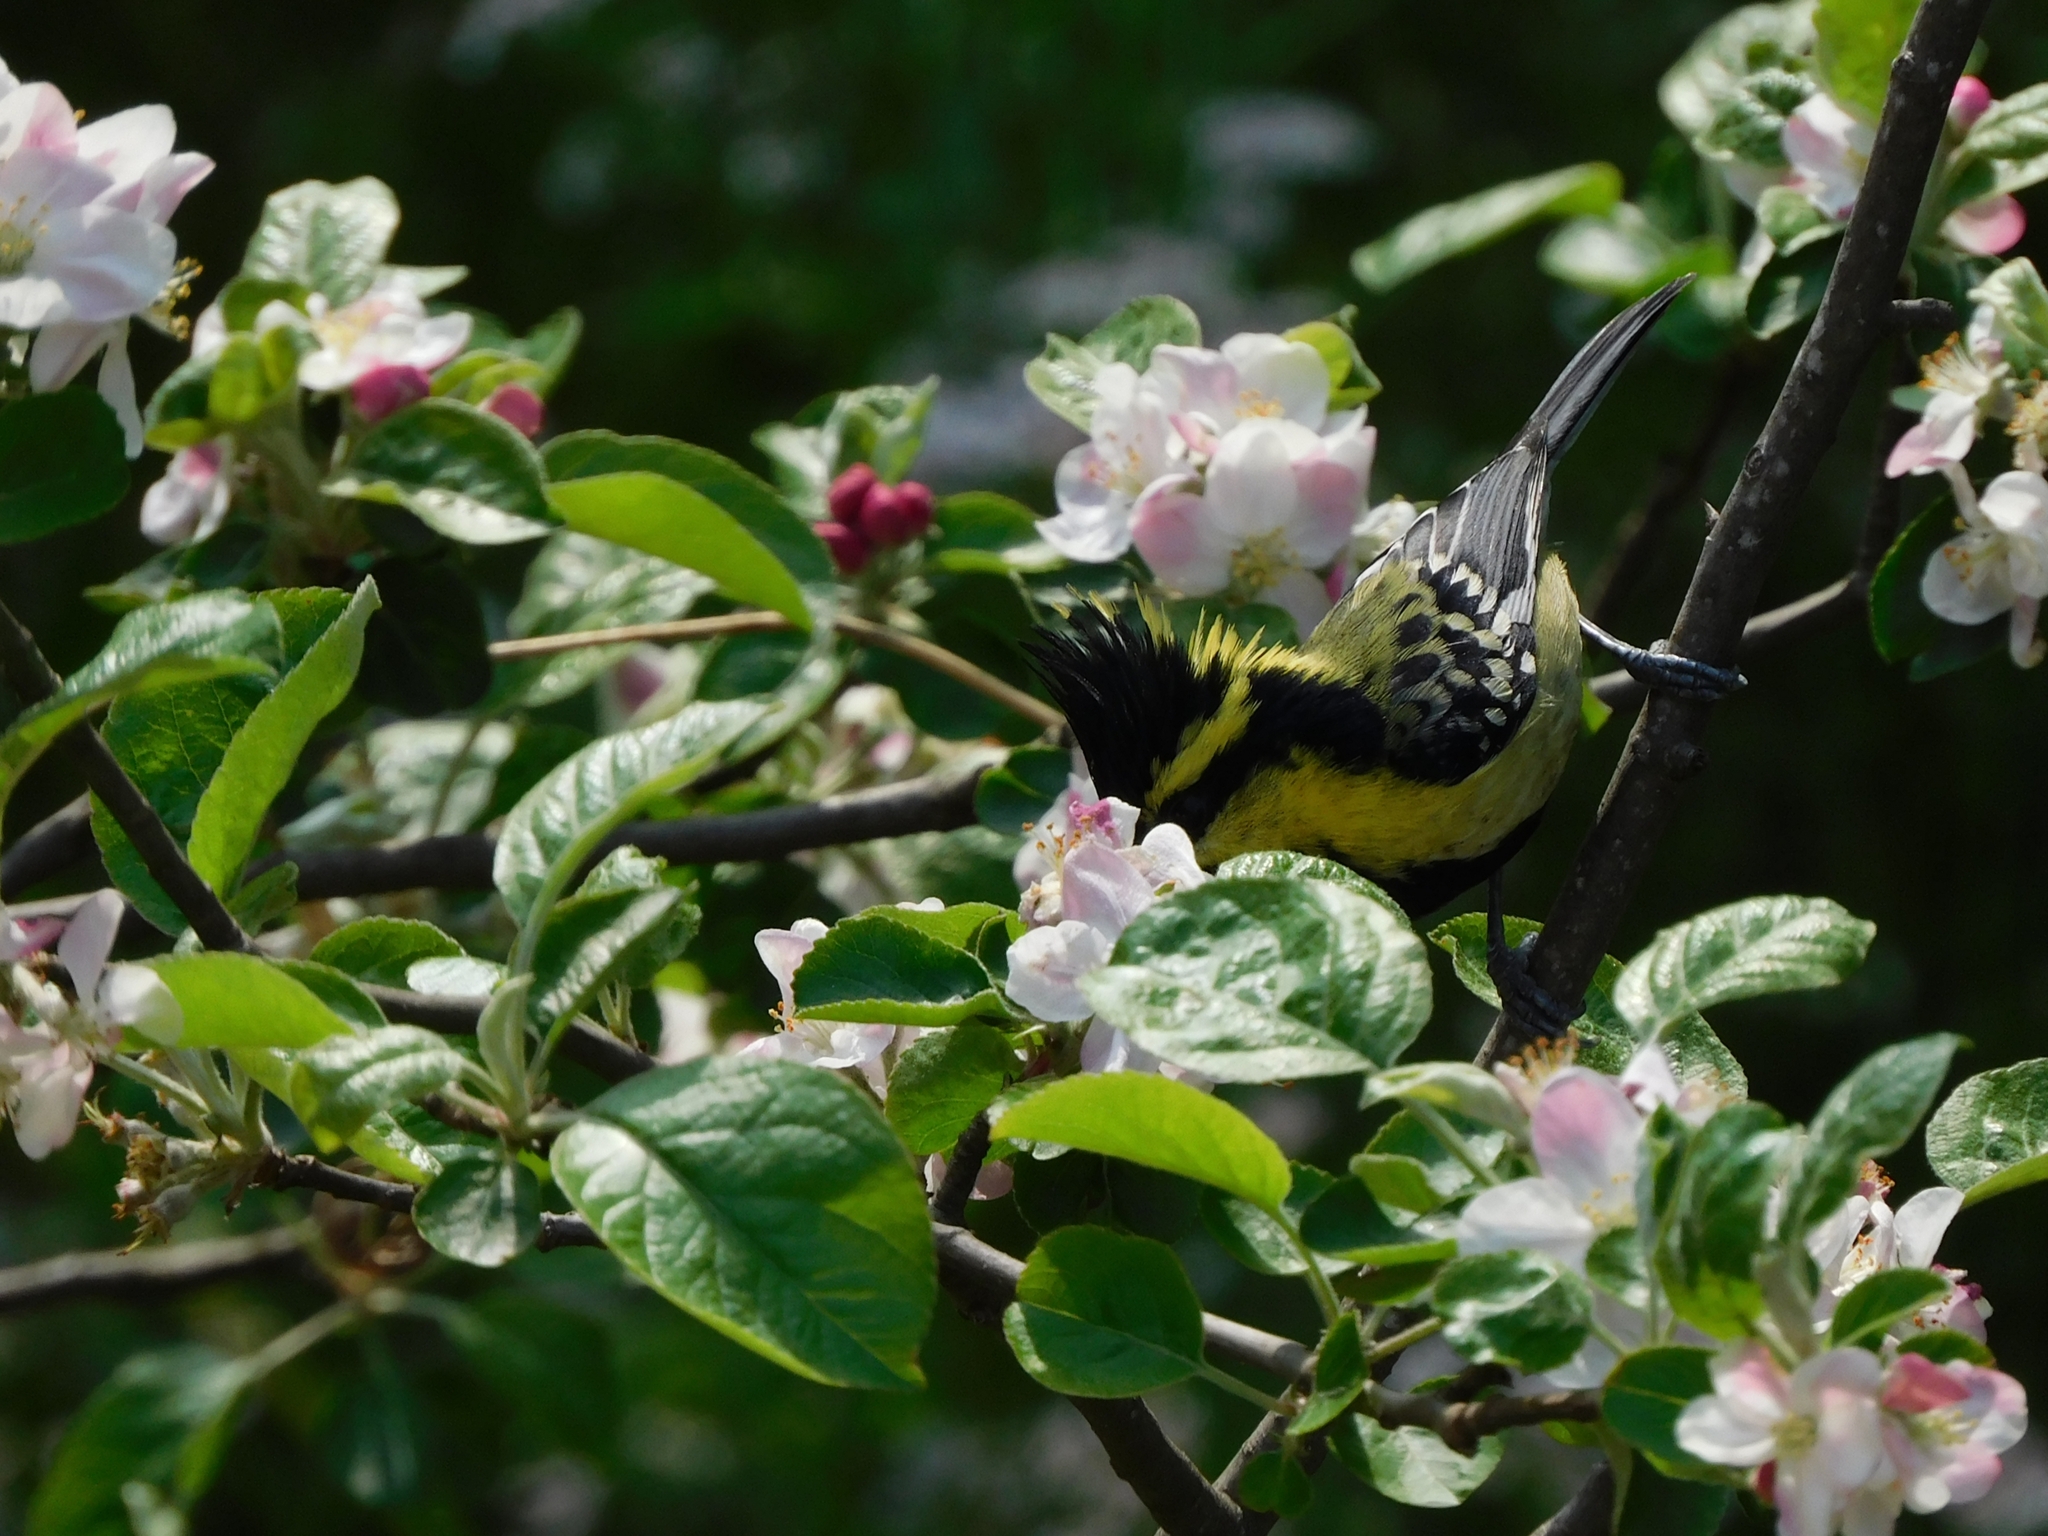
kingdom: Animalia
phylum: Chordata
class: Aves
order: Passeriformes
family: Paridae
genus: Parus
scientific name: Parus xanthogenys
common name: Black-lored tit
